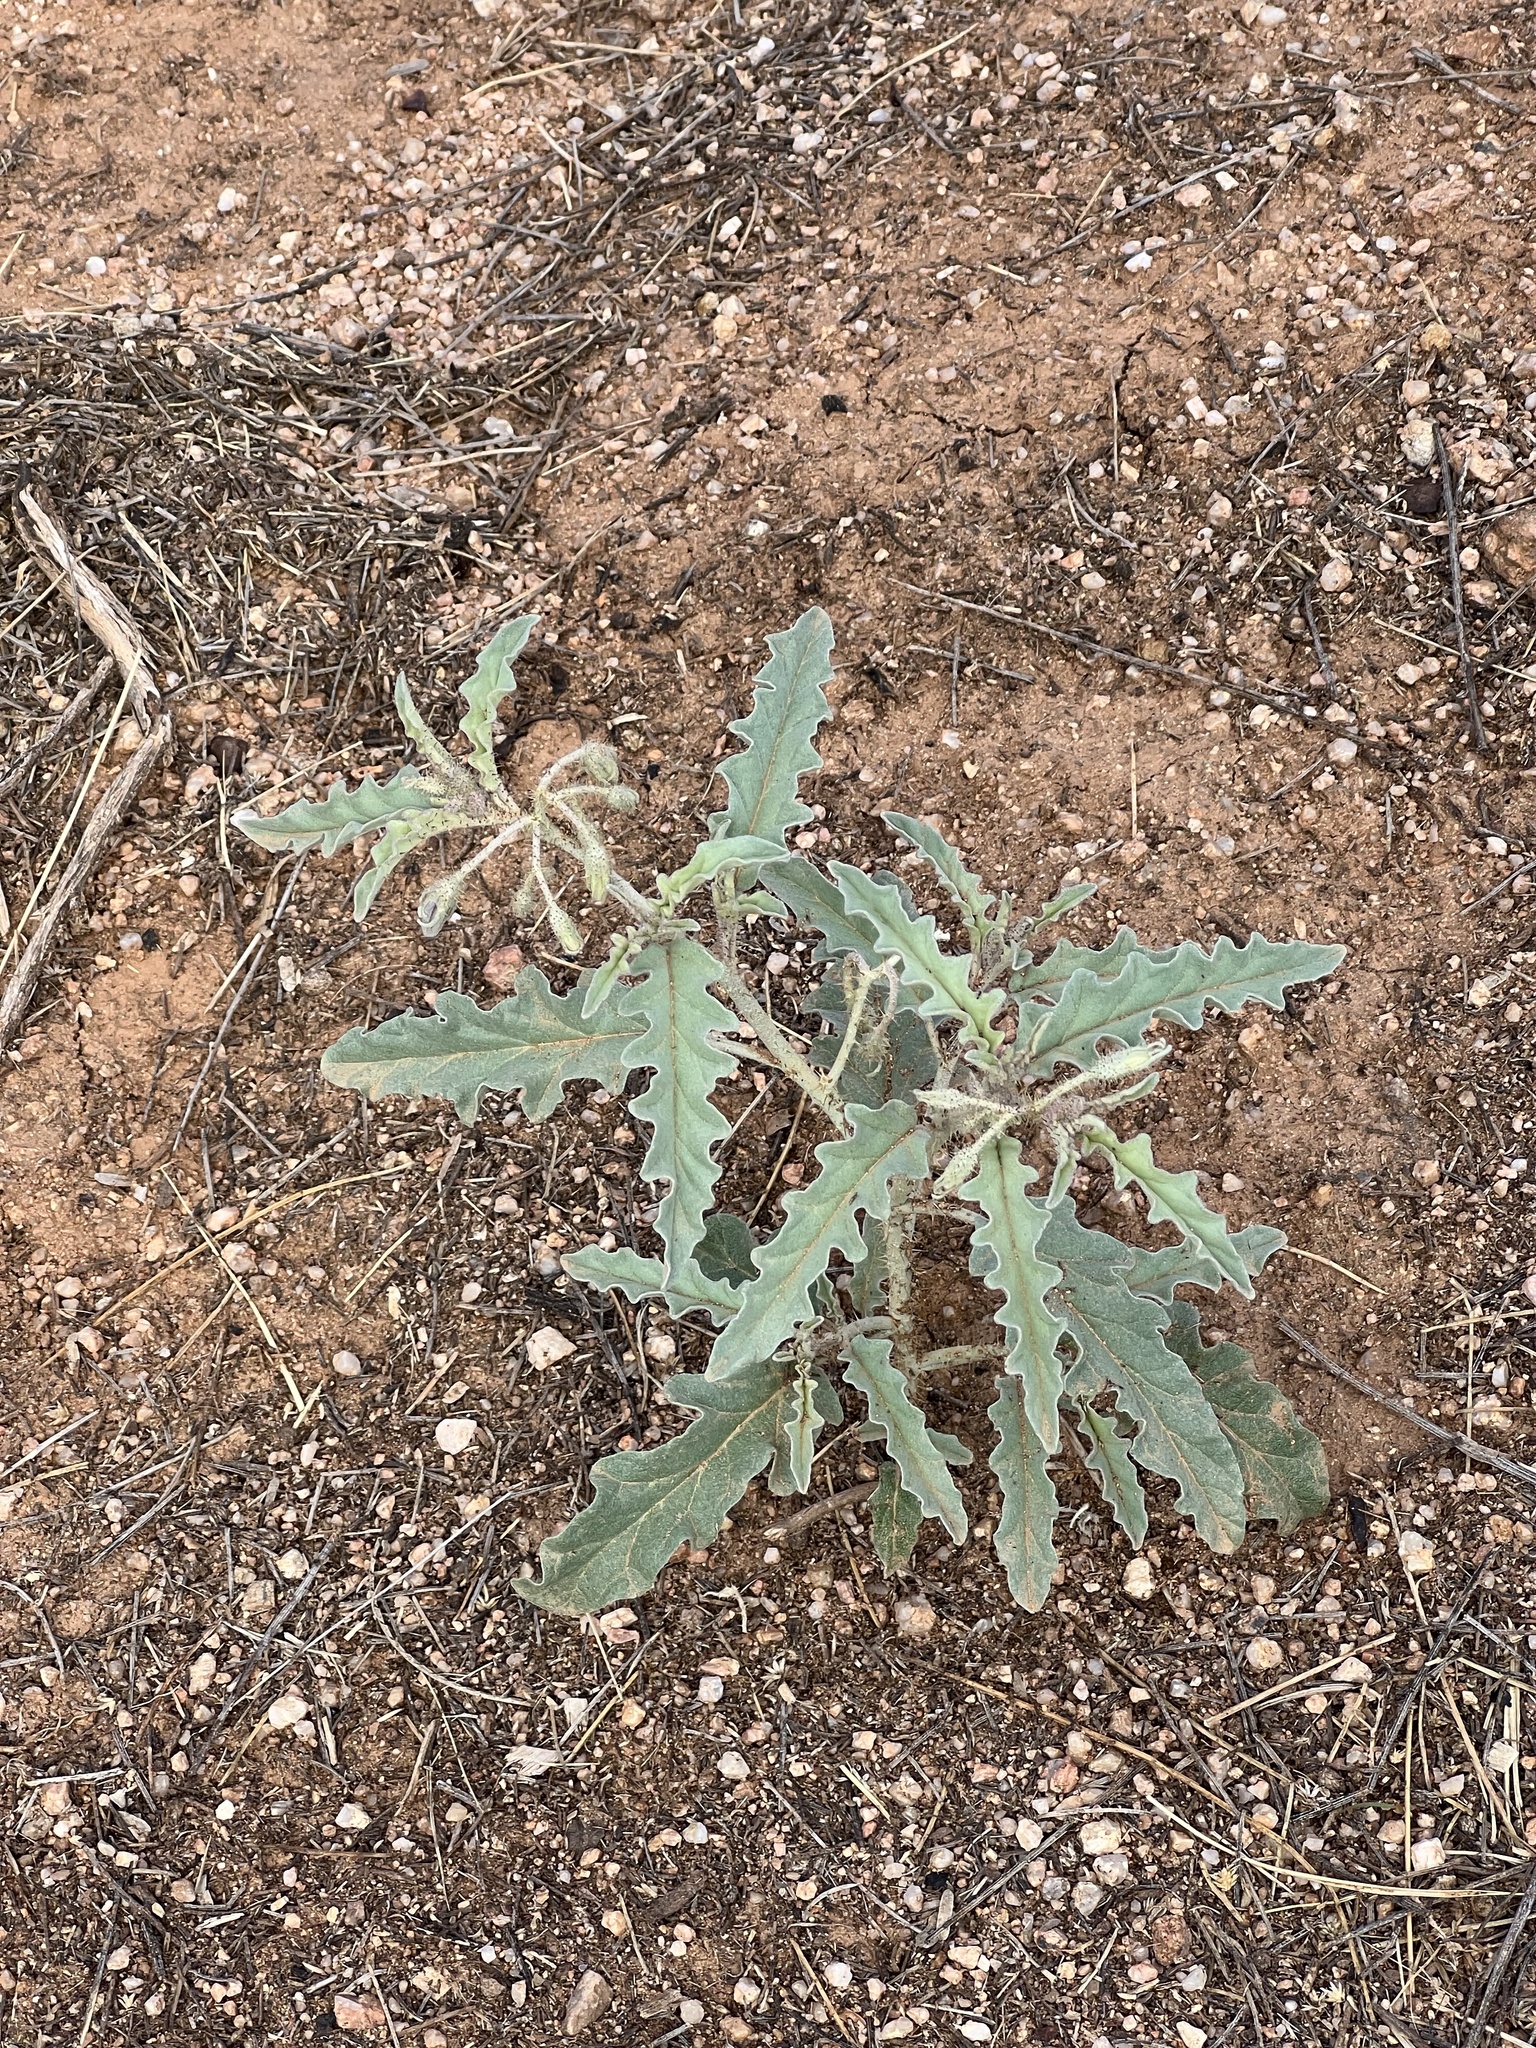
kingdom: Plantae
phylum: Tracheophyta
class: Magnoliopsida
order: Solanales
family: Solanaceae
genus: Solanum
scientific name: Solanum elaeagnifolium
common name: Silverleaf nightshade
